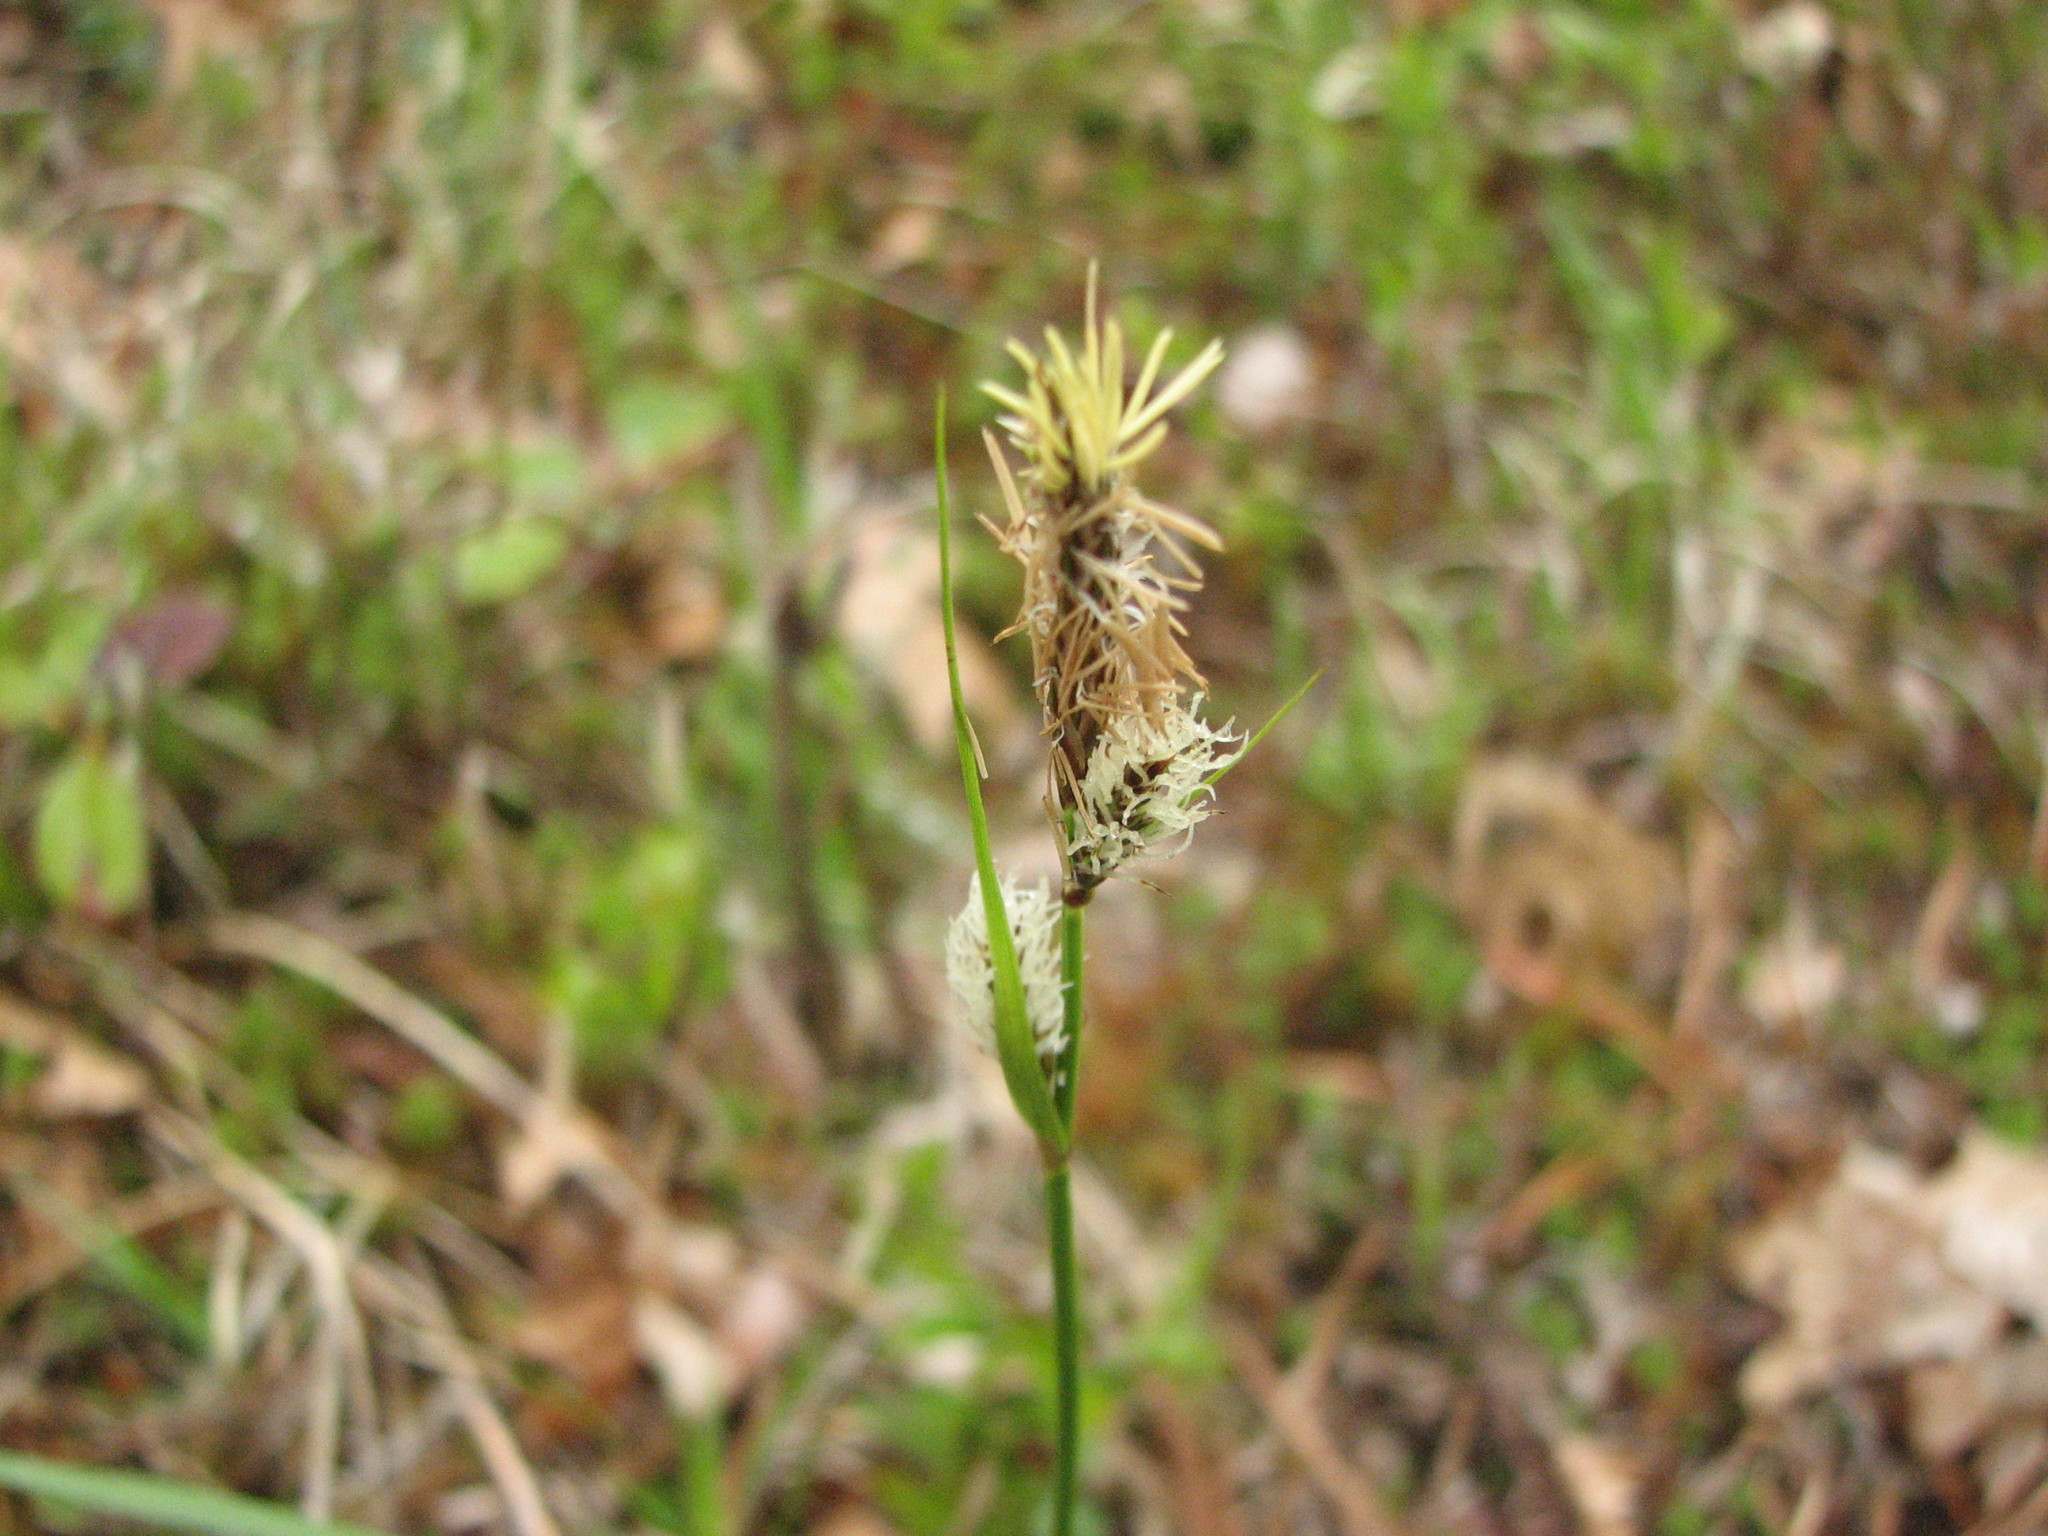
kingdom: Plantae
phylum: Tracheophyta
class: Liliopsida
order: Poales
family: Cyperaceae
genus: Carex
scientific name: Carex polymorpha
